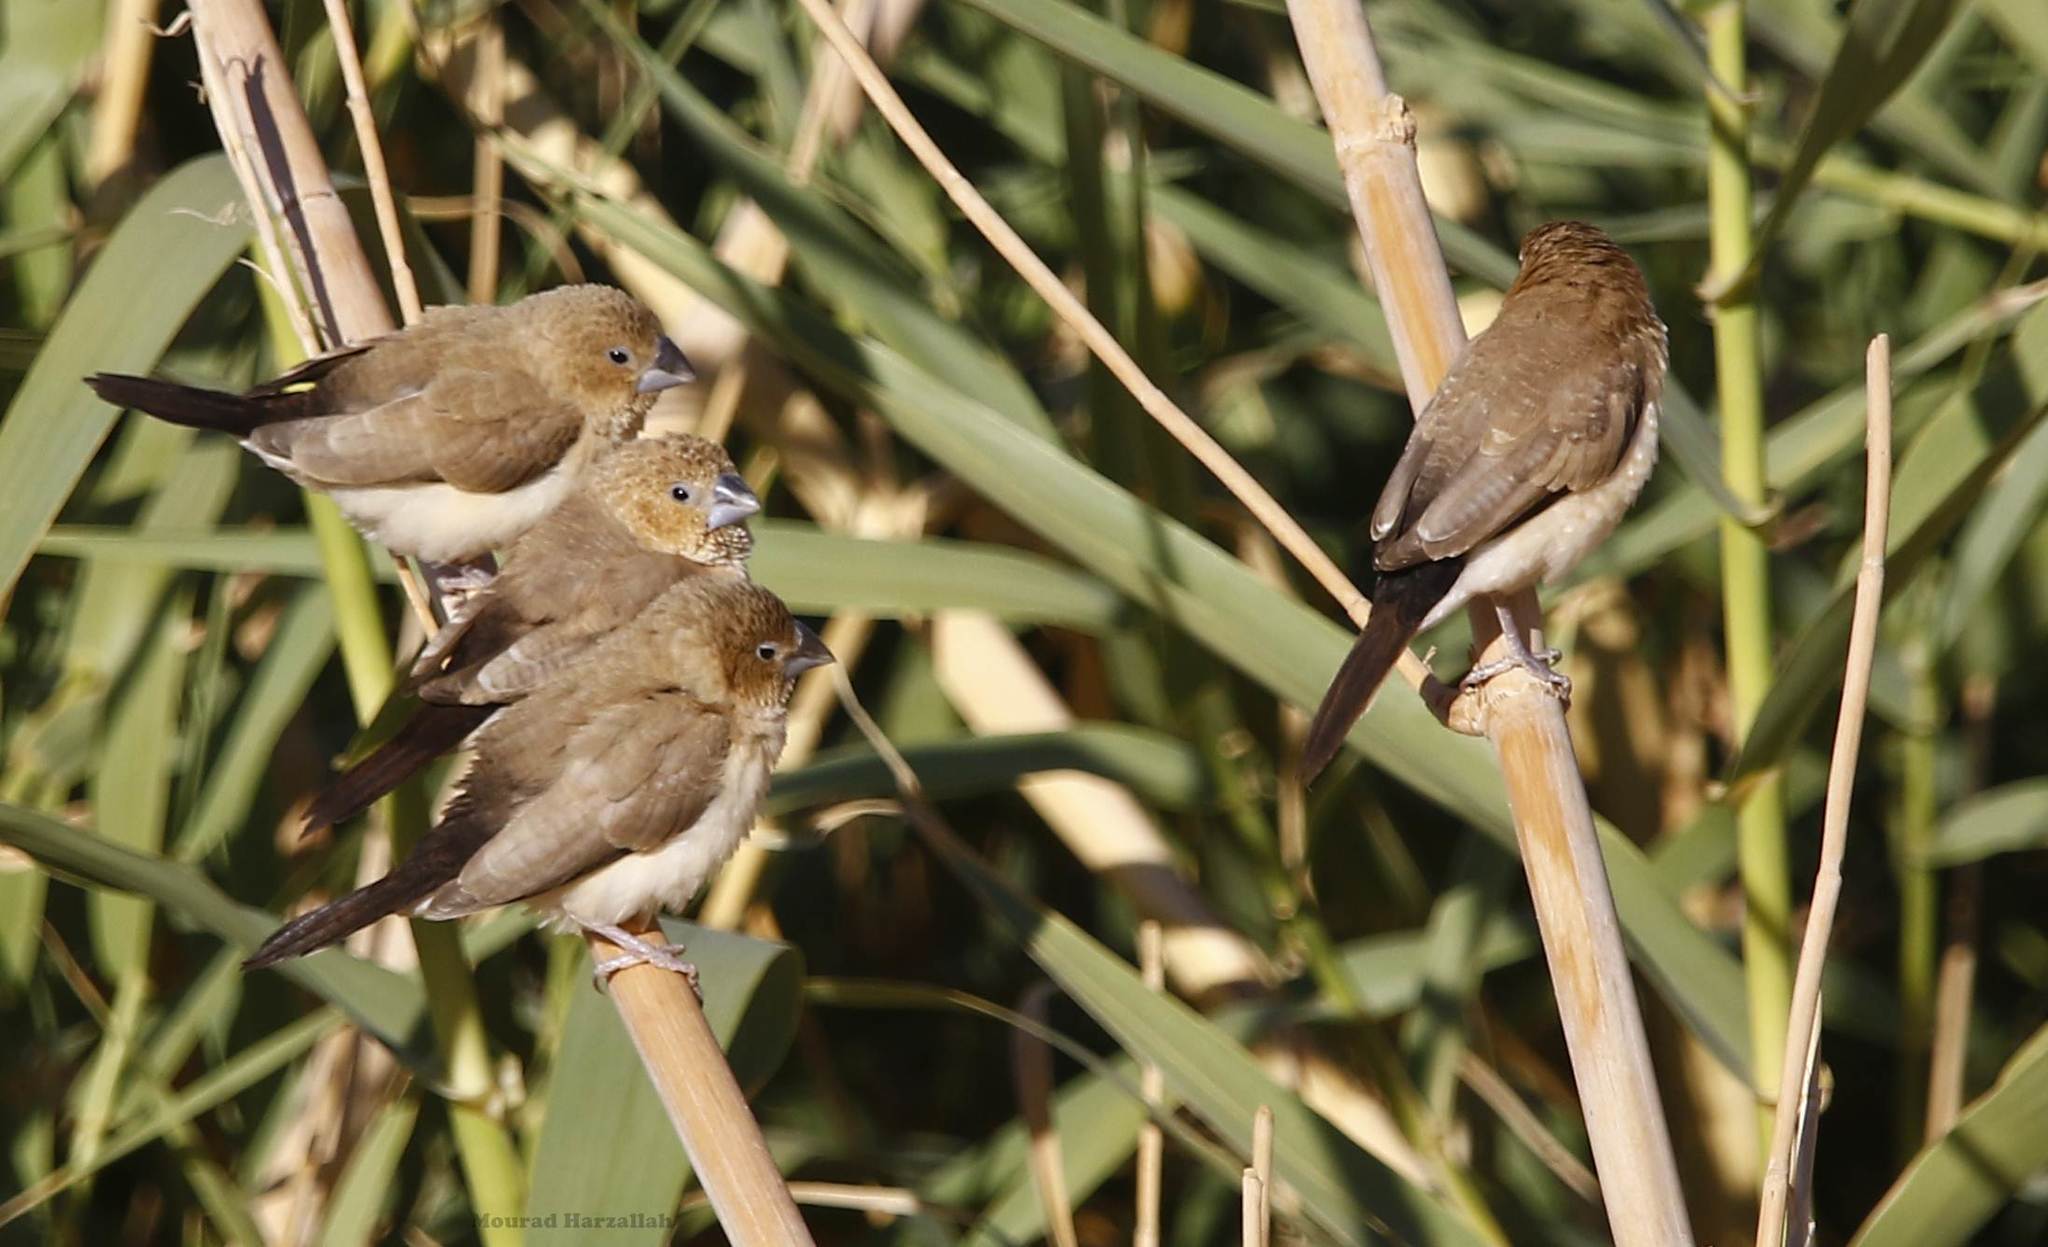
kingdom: Animalia
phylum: Chordata
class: Aves
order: Passeriformes
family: Estrildidae
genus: Euodice
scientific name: Euodice cantans
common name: African silverbill
